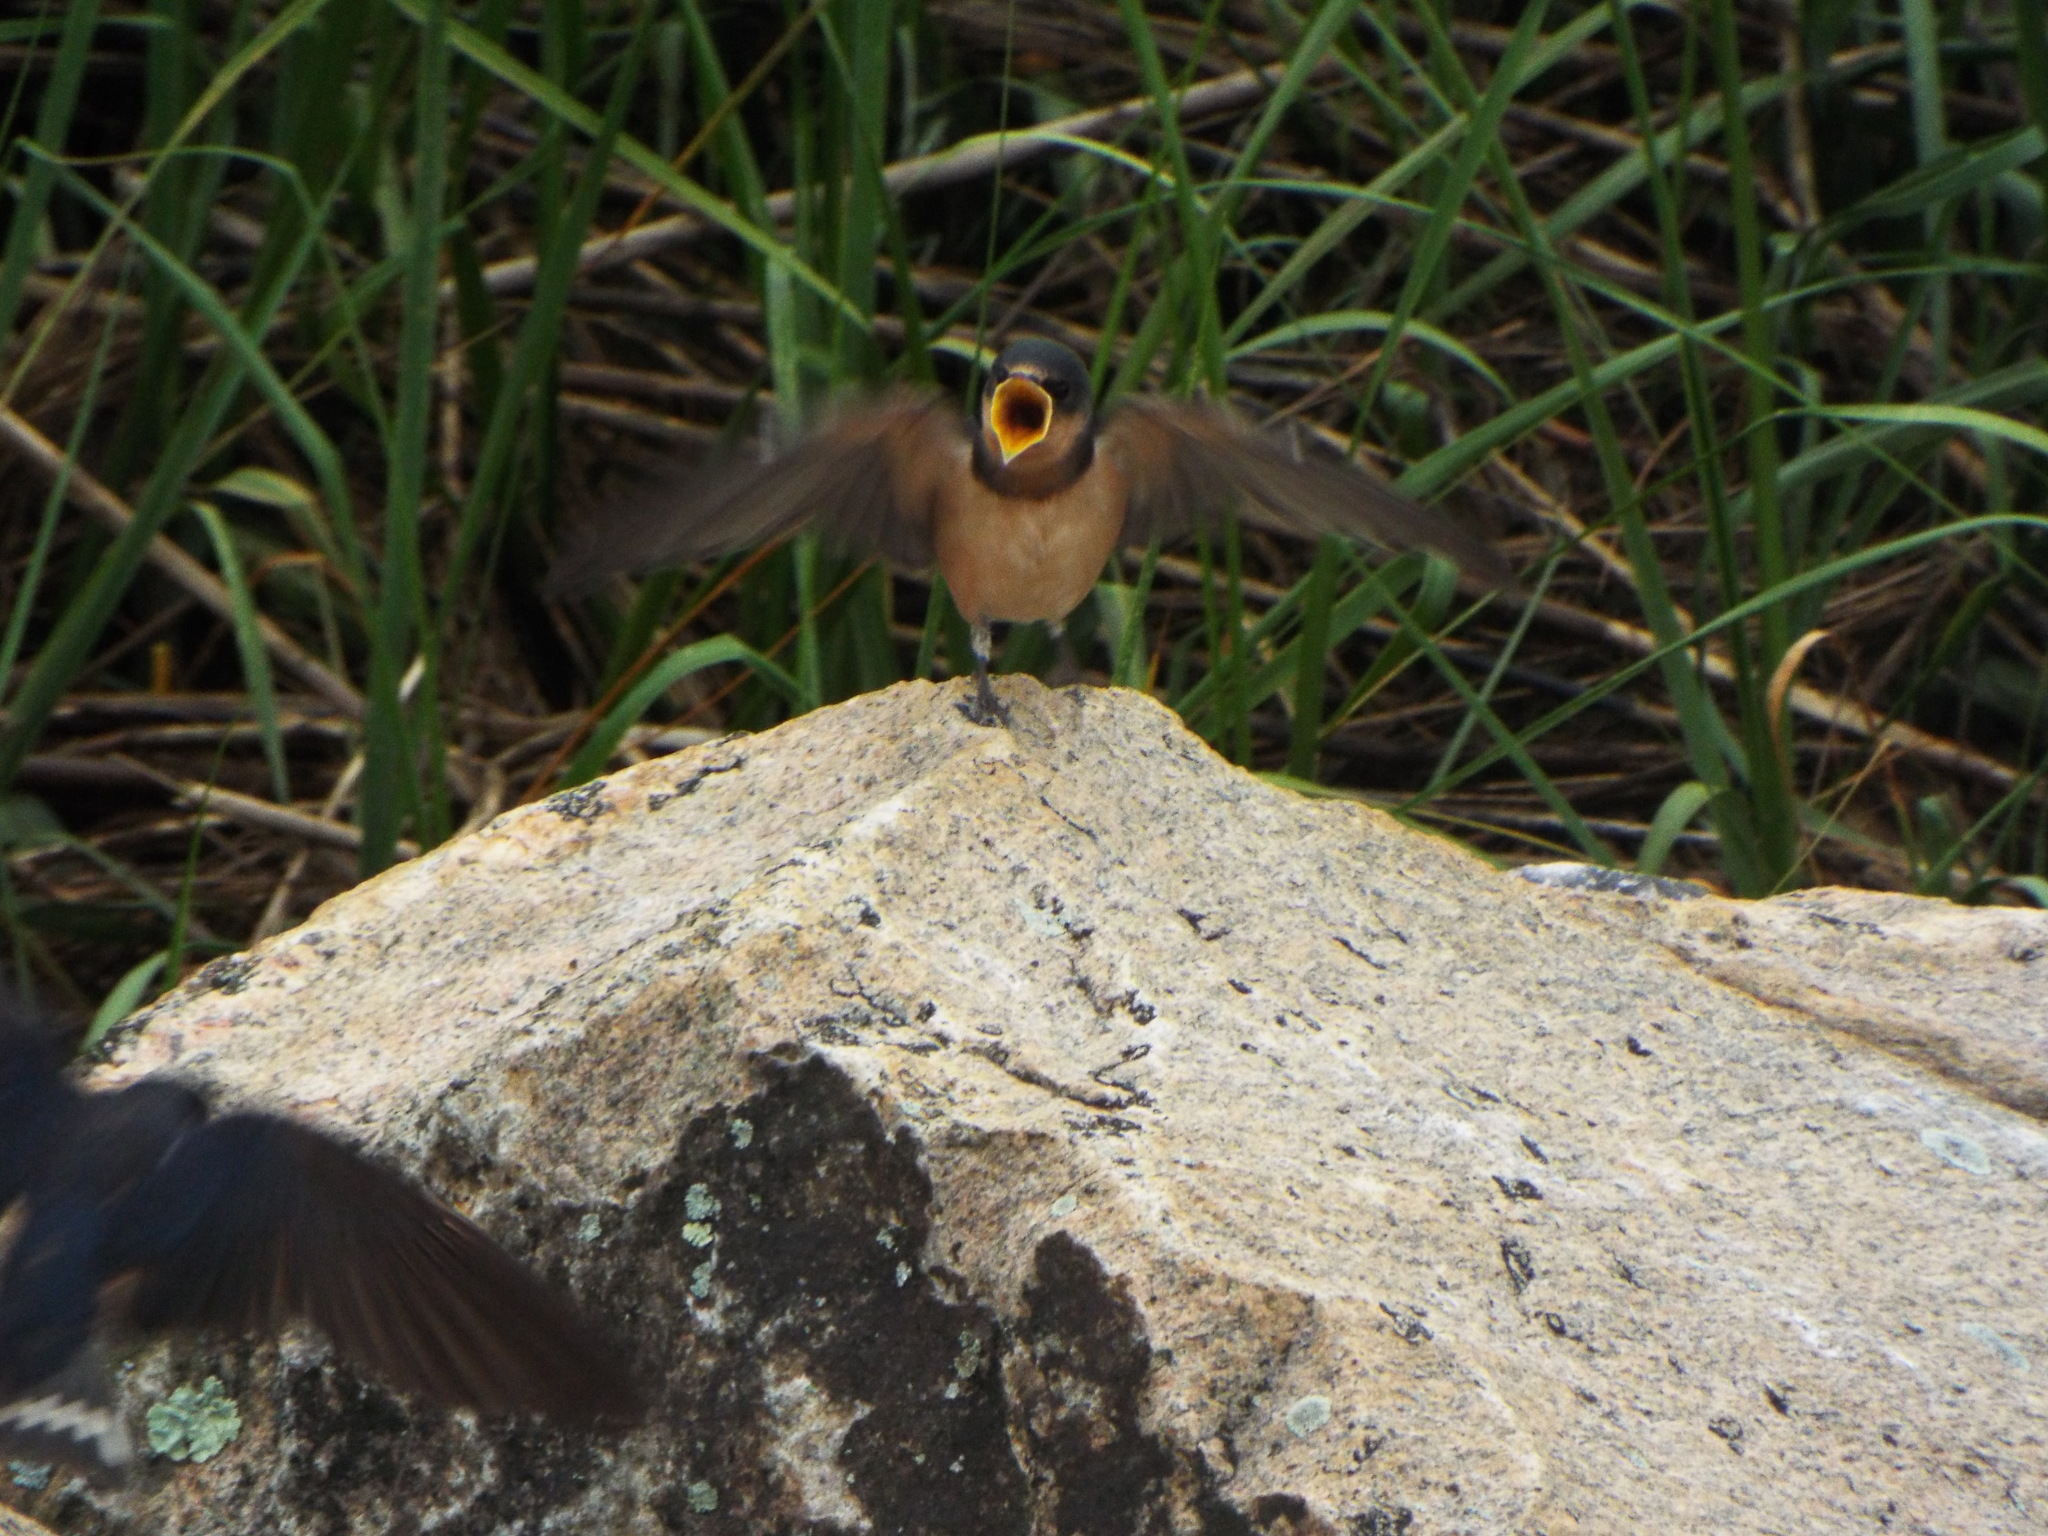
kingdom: Animalia
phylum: Chordata
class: Aves
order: Passeriformes
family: Hirundinidae
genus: Hirundo
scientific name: Hirundo rustica
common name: Barn swallow
